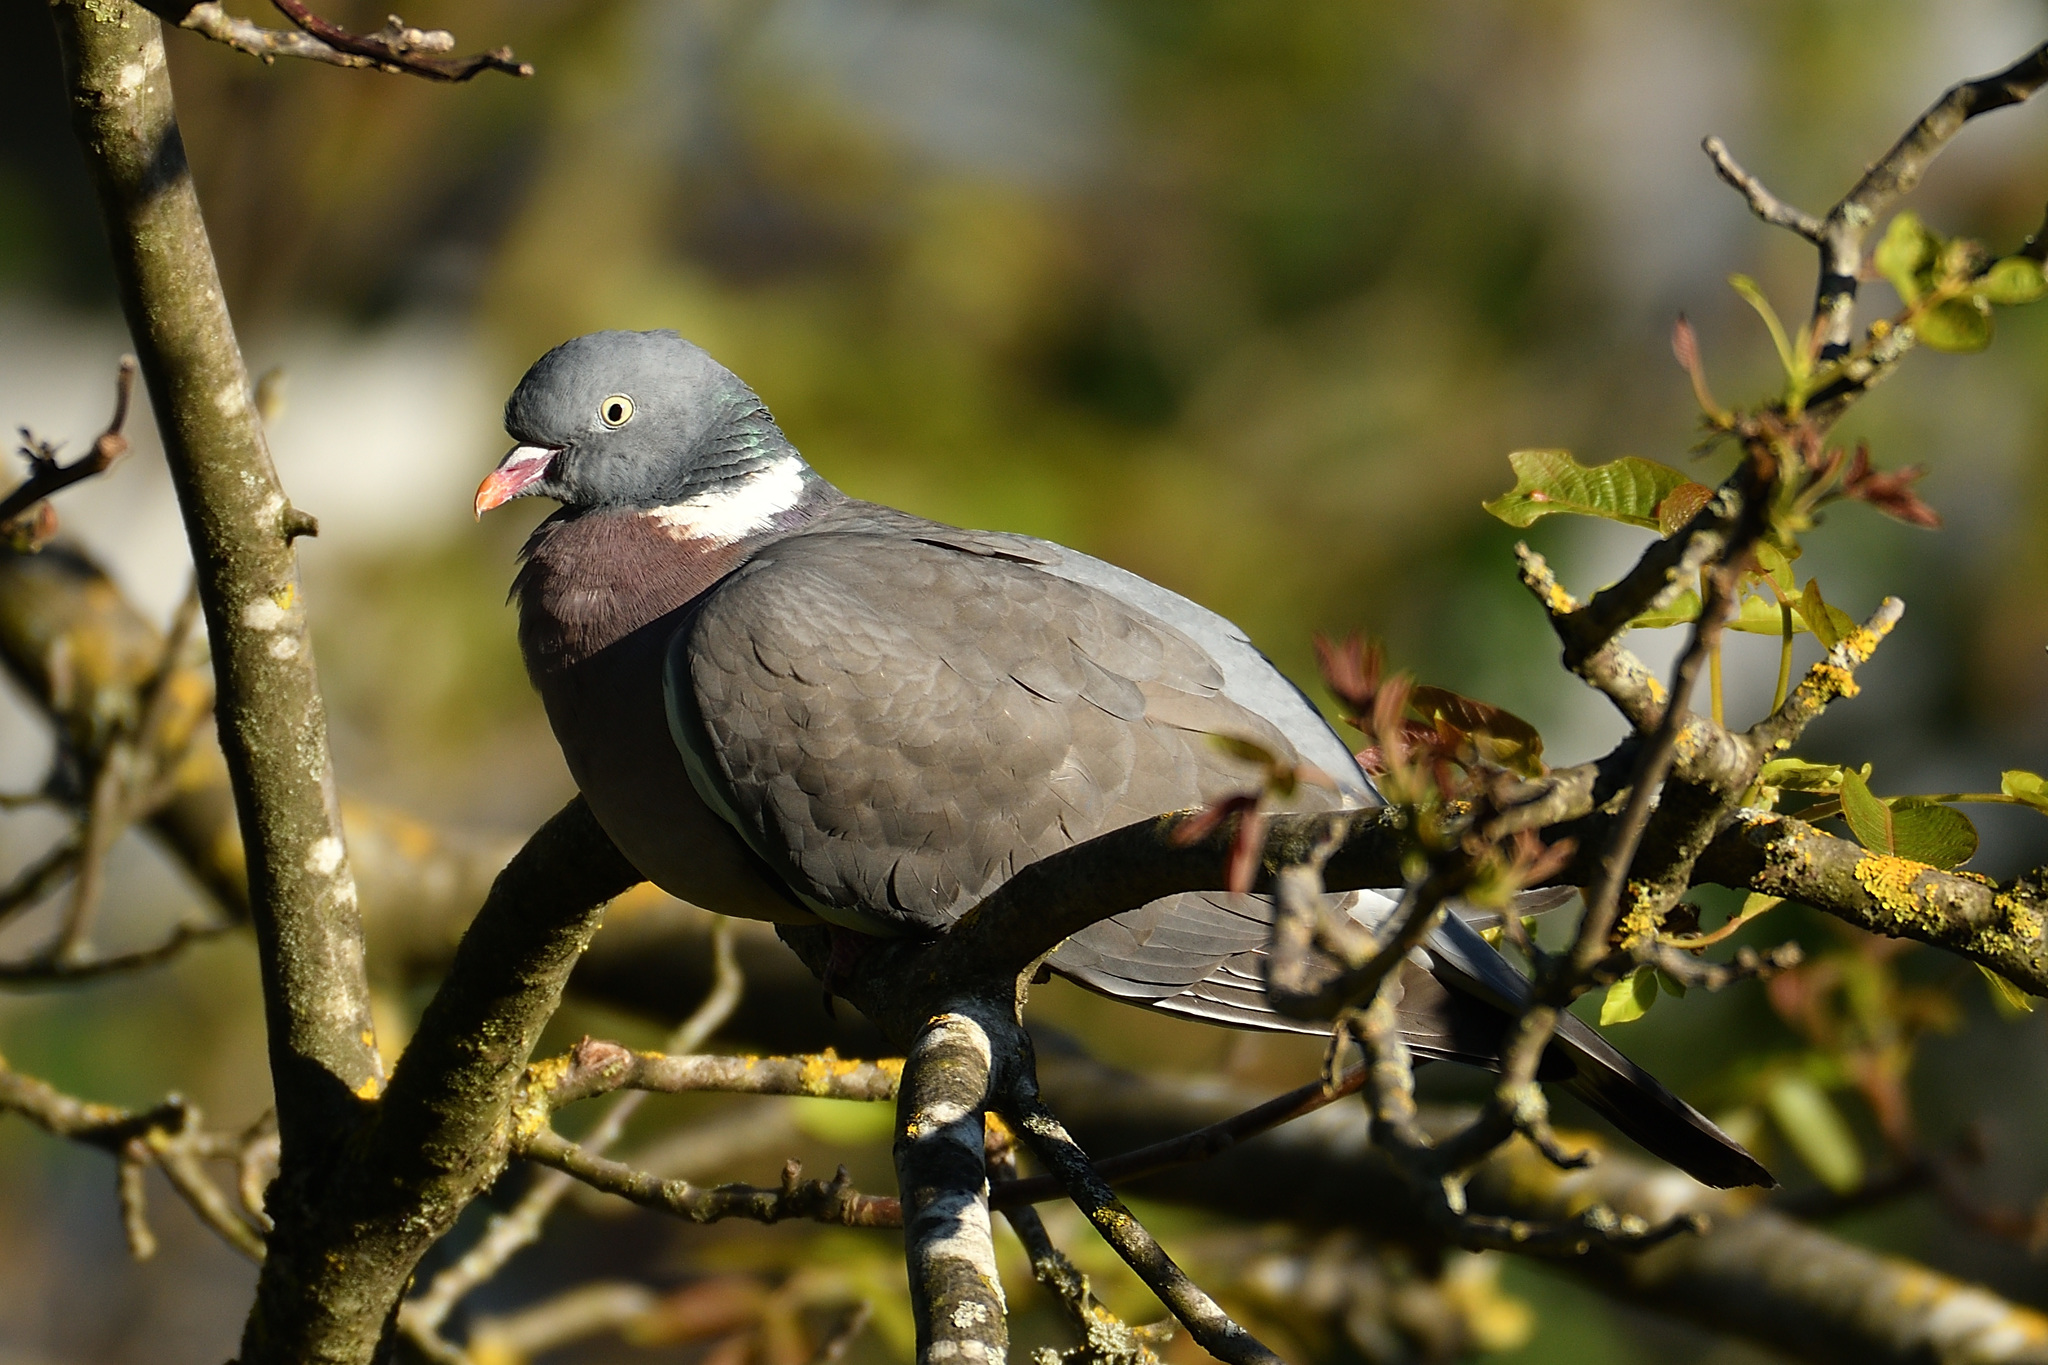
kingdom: Animalia
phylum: Chordata
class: Aves
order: Columbiformes
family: Columbidae
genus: Columba
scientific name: Columba palumbus
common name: Common wood pigeon
